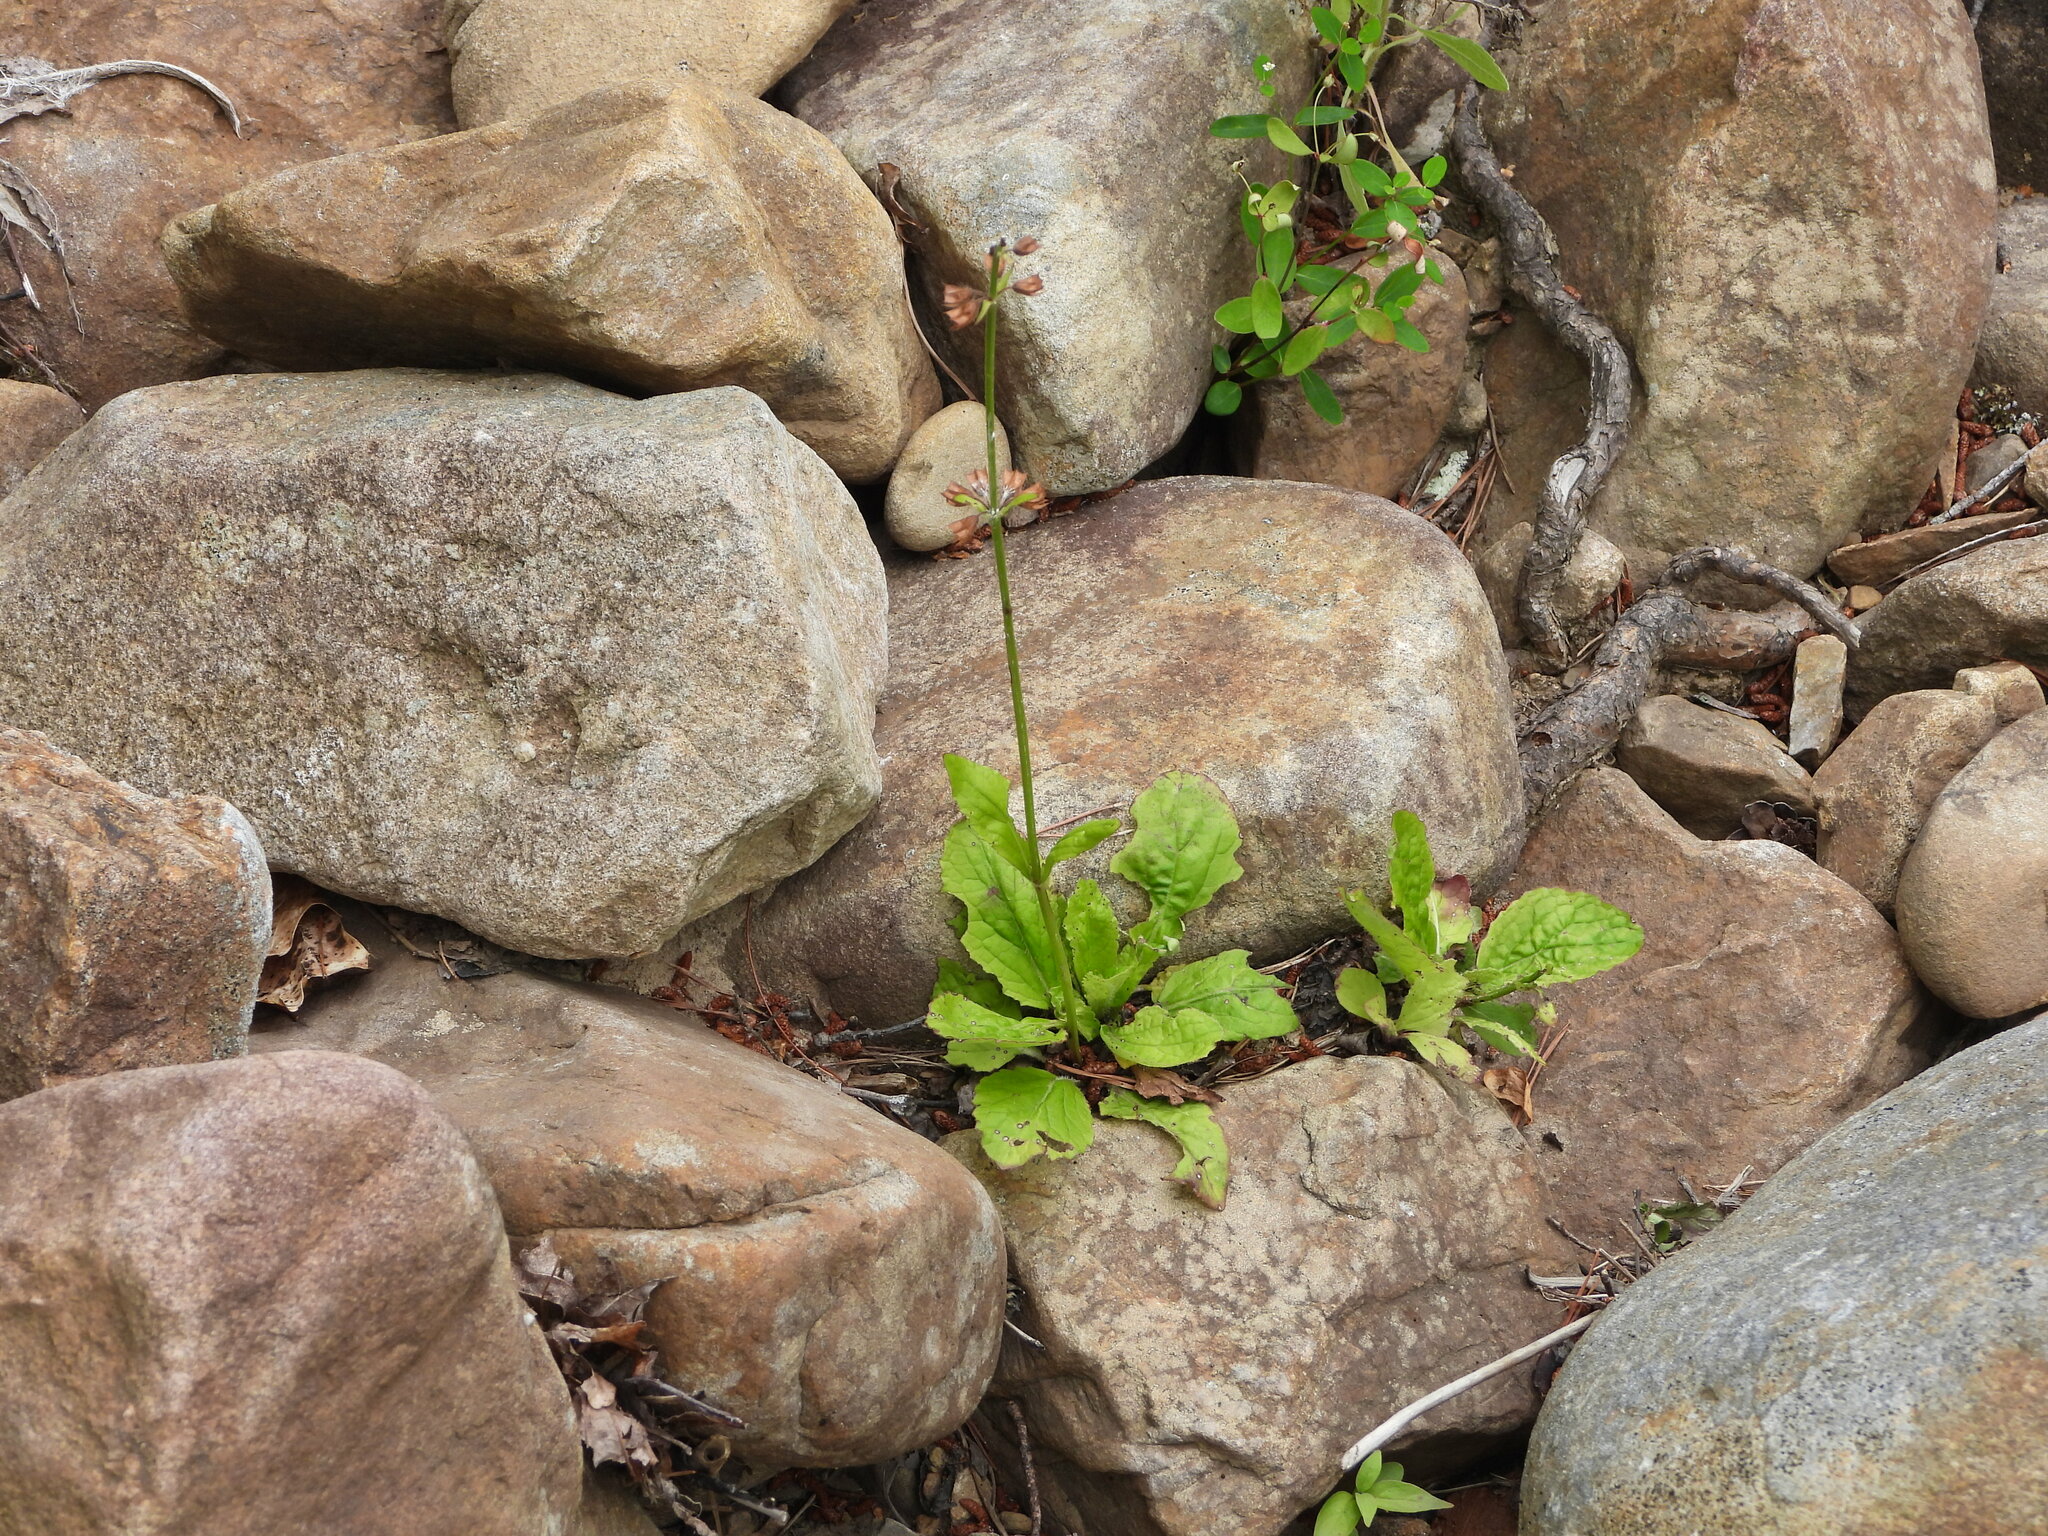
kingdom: Plantae
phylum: Tracheophyta
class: Magnoliopsida
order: Lamiales
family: Lamiaceae
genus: Salvia
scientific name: Salvia lyrata
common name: Cancerweed
